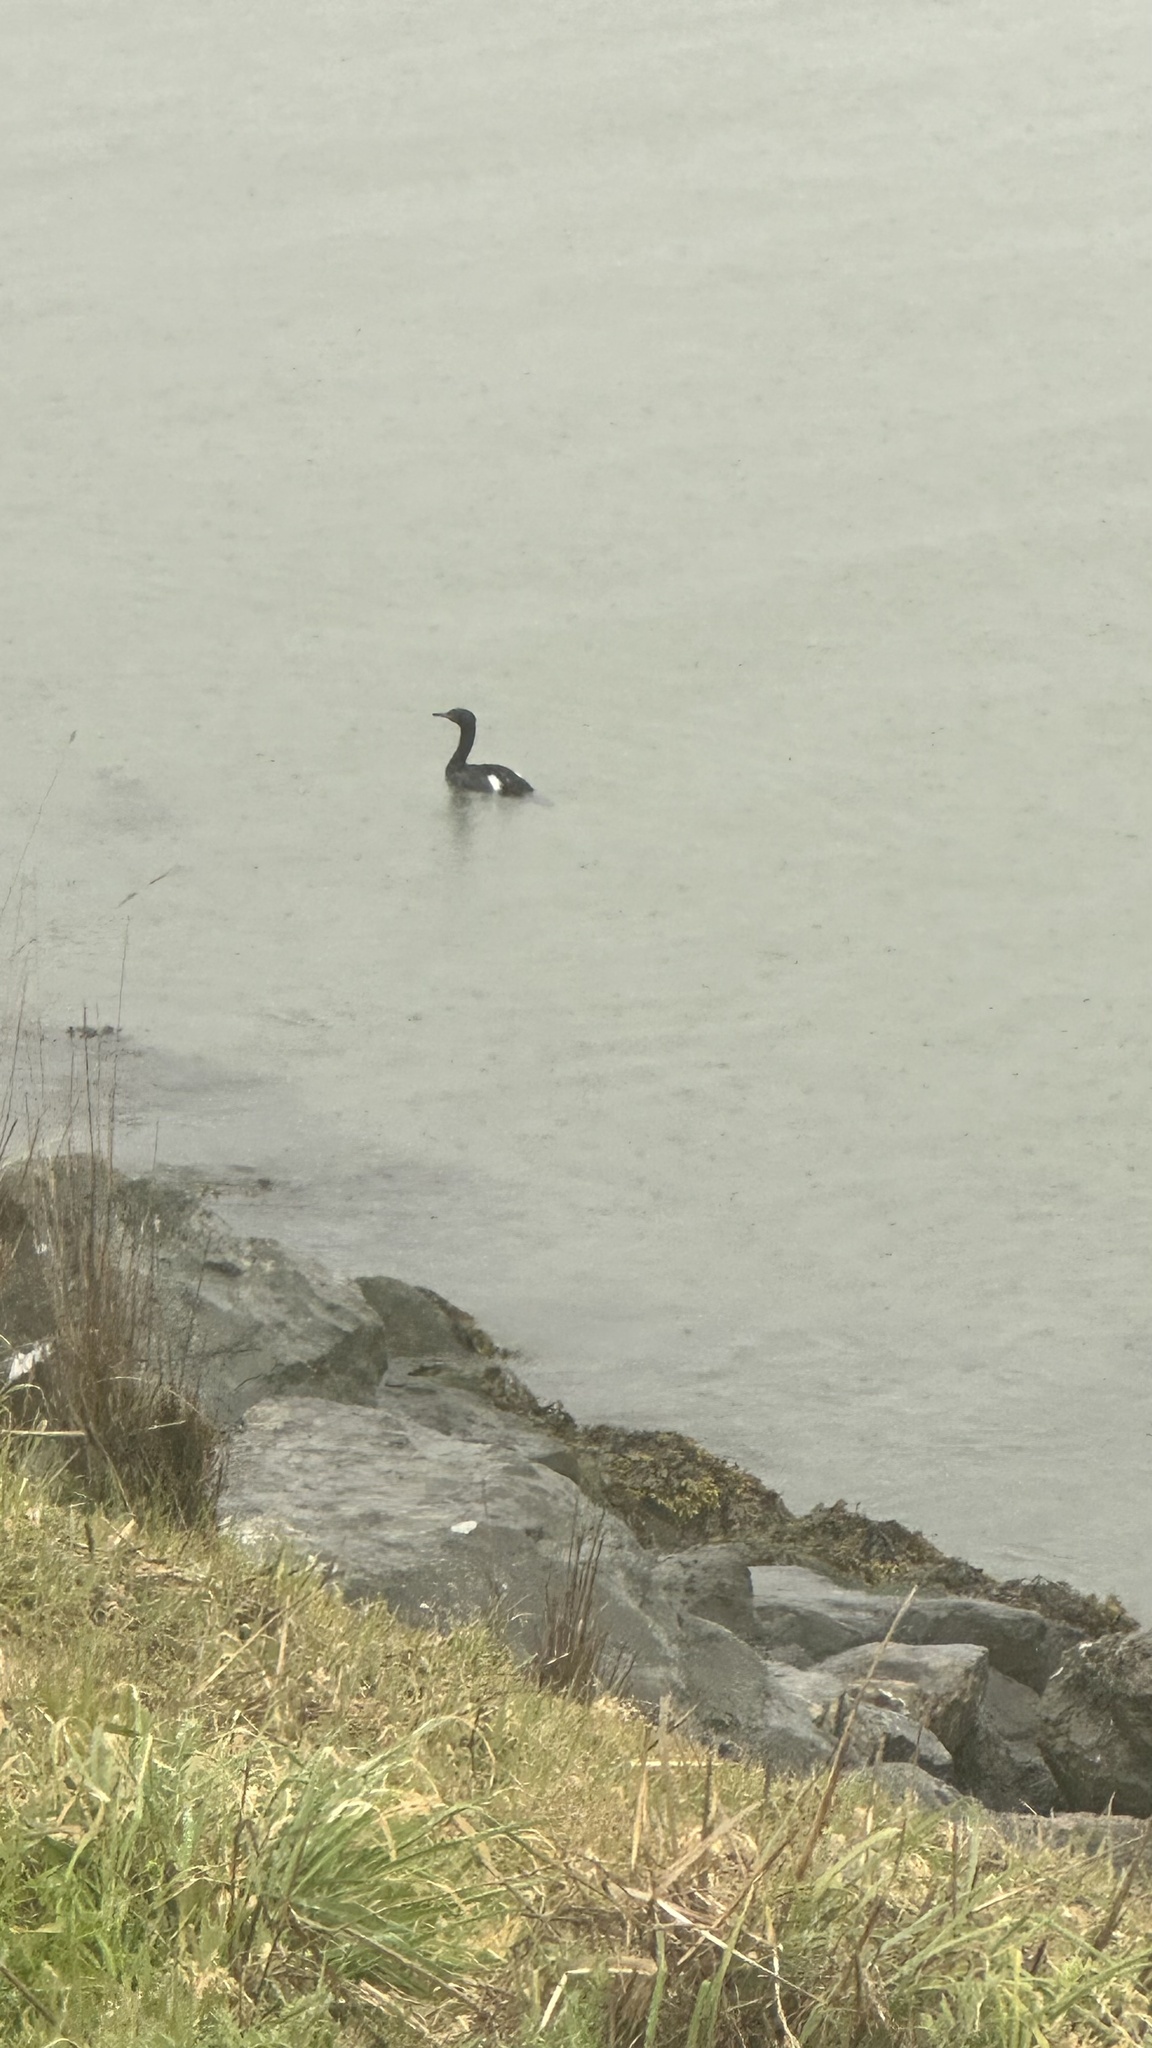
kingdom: Animalia
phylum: Chordata
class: Aves
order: Suliformes
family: Phalacrocoracidae
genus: Phalacrocorax
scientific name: Phalacrocorax pelagicus
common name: Pelagic cormorant
